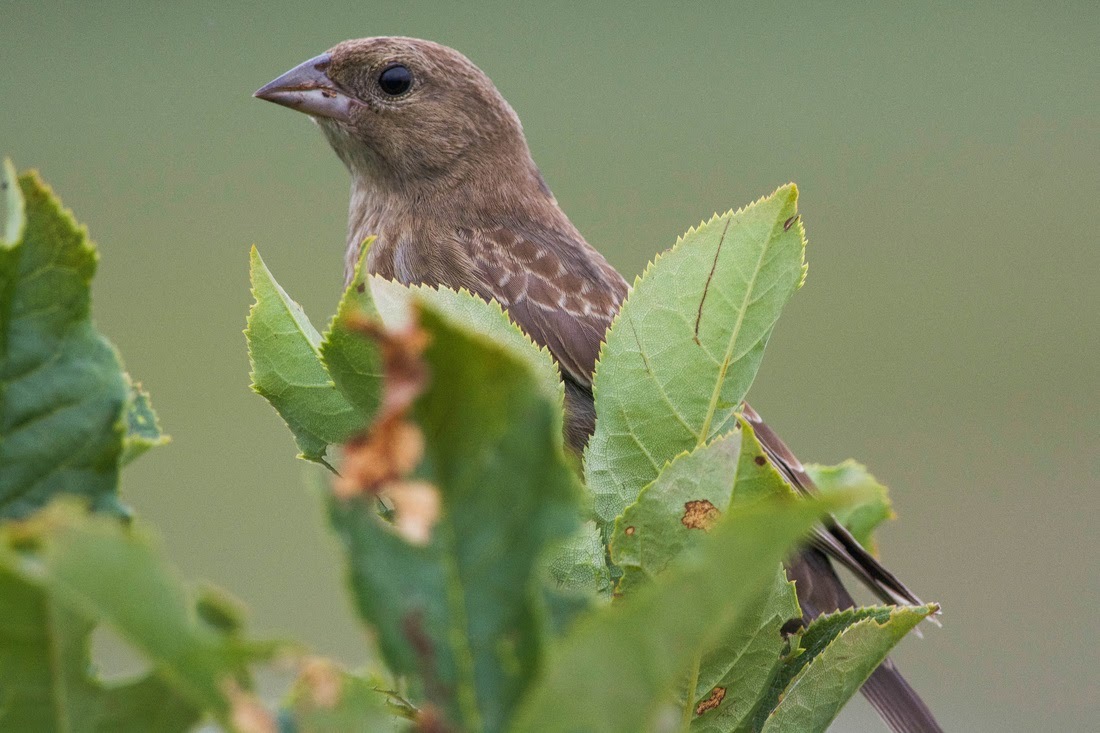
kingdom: Animalia
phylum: Chordata
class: Aves
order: Passeriformes
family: Icteridae
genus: Molothrus
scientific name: Molothrus ater
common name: Brown-headed cowbird
